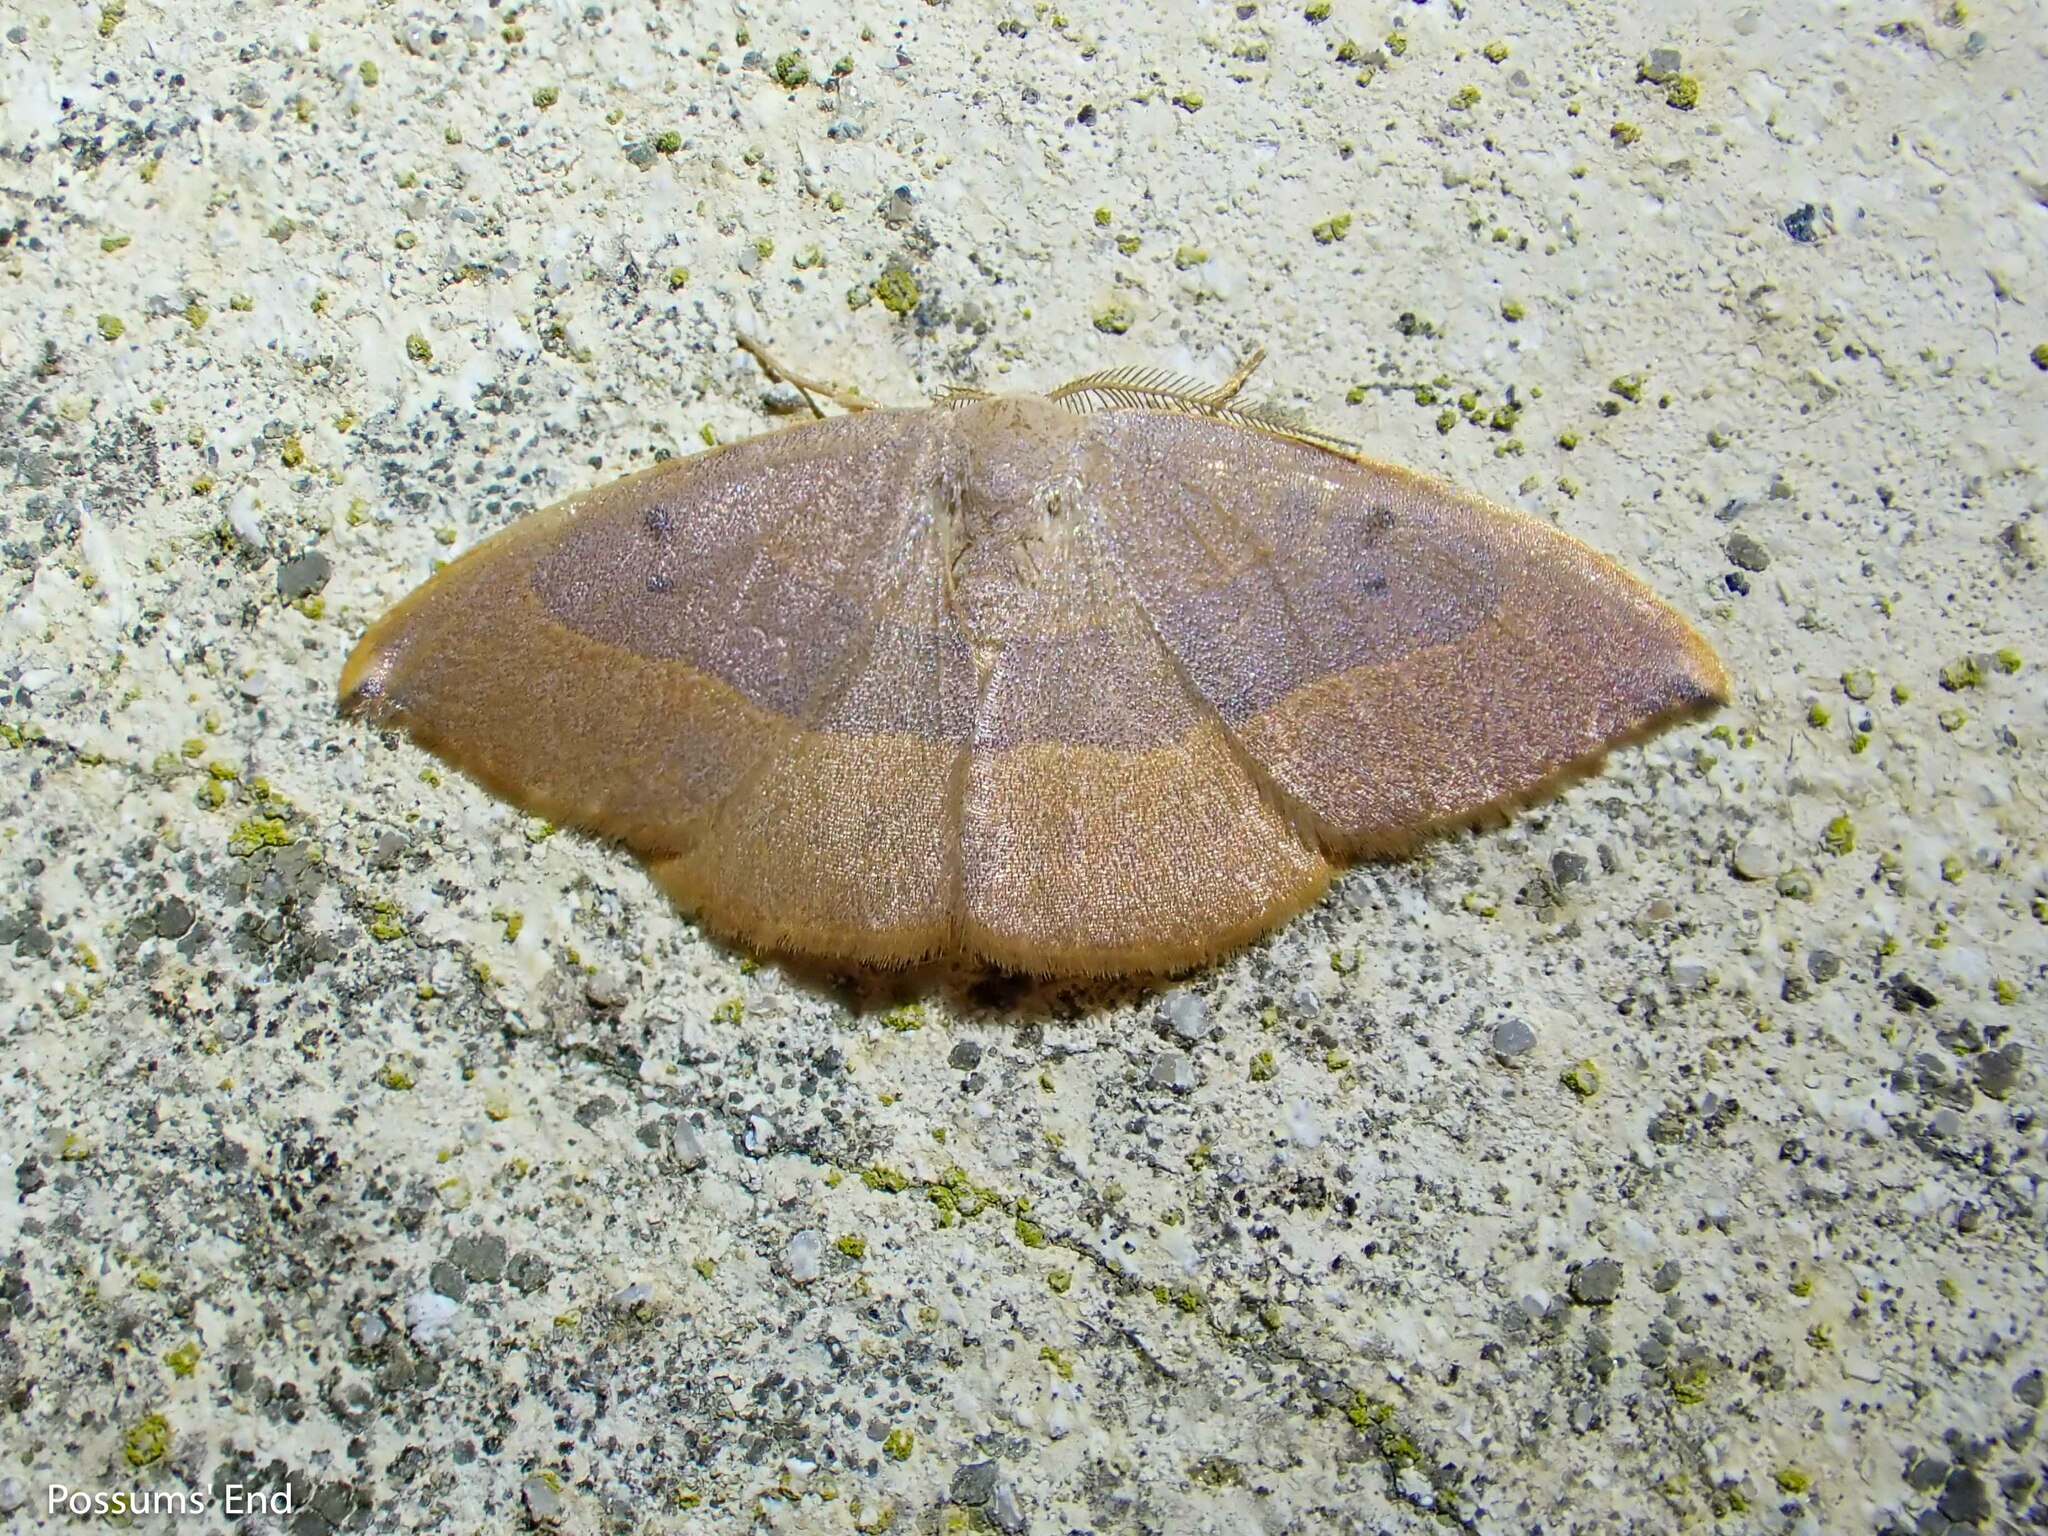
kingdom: Animalia
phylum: Arthropoda
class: Insecta
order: Lepidoptera
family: Drepanidae
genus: Watsonalla
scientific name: Watsonalla uncinula
